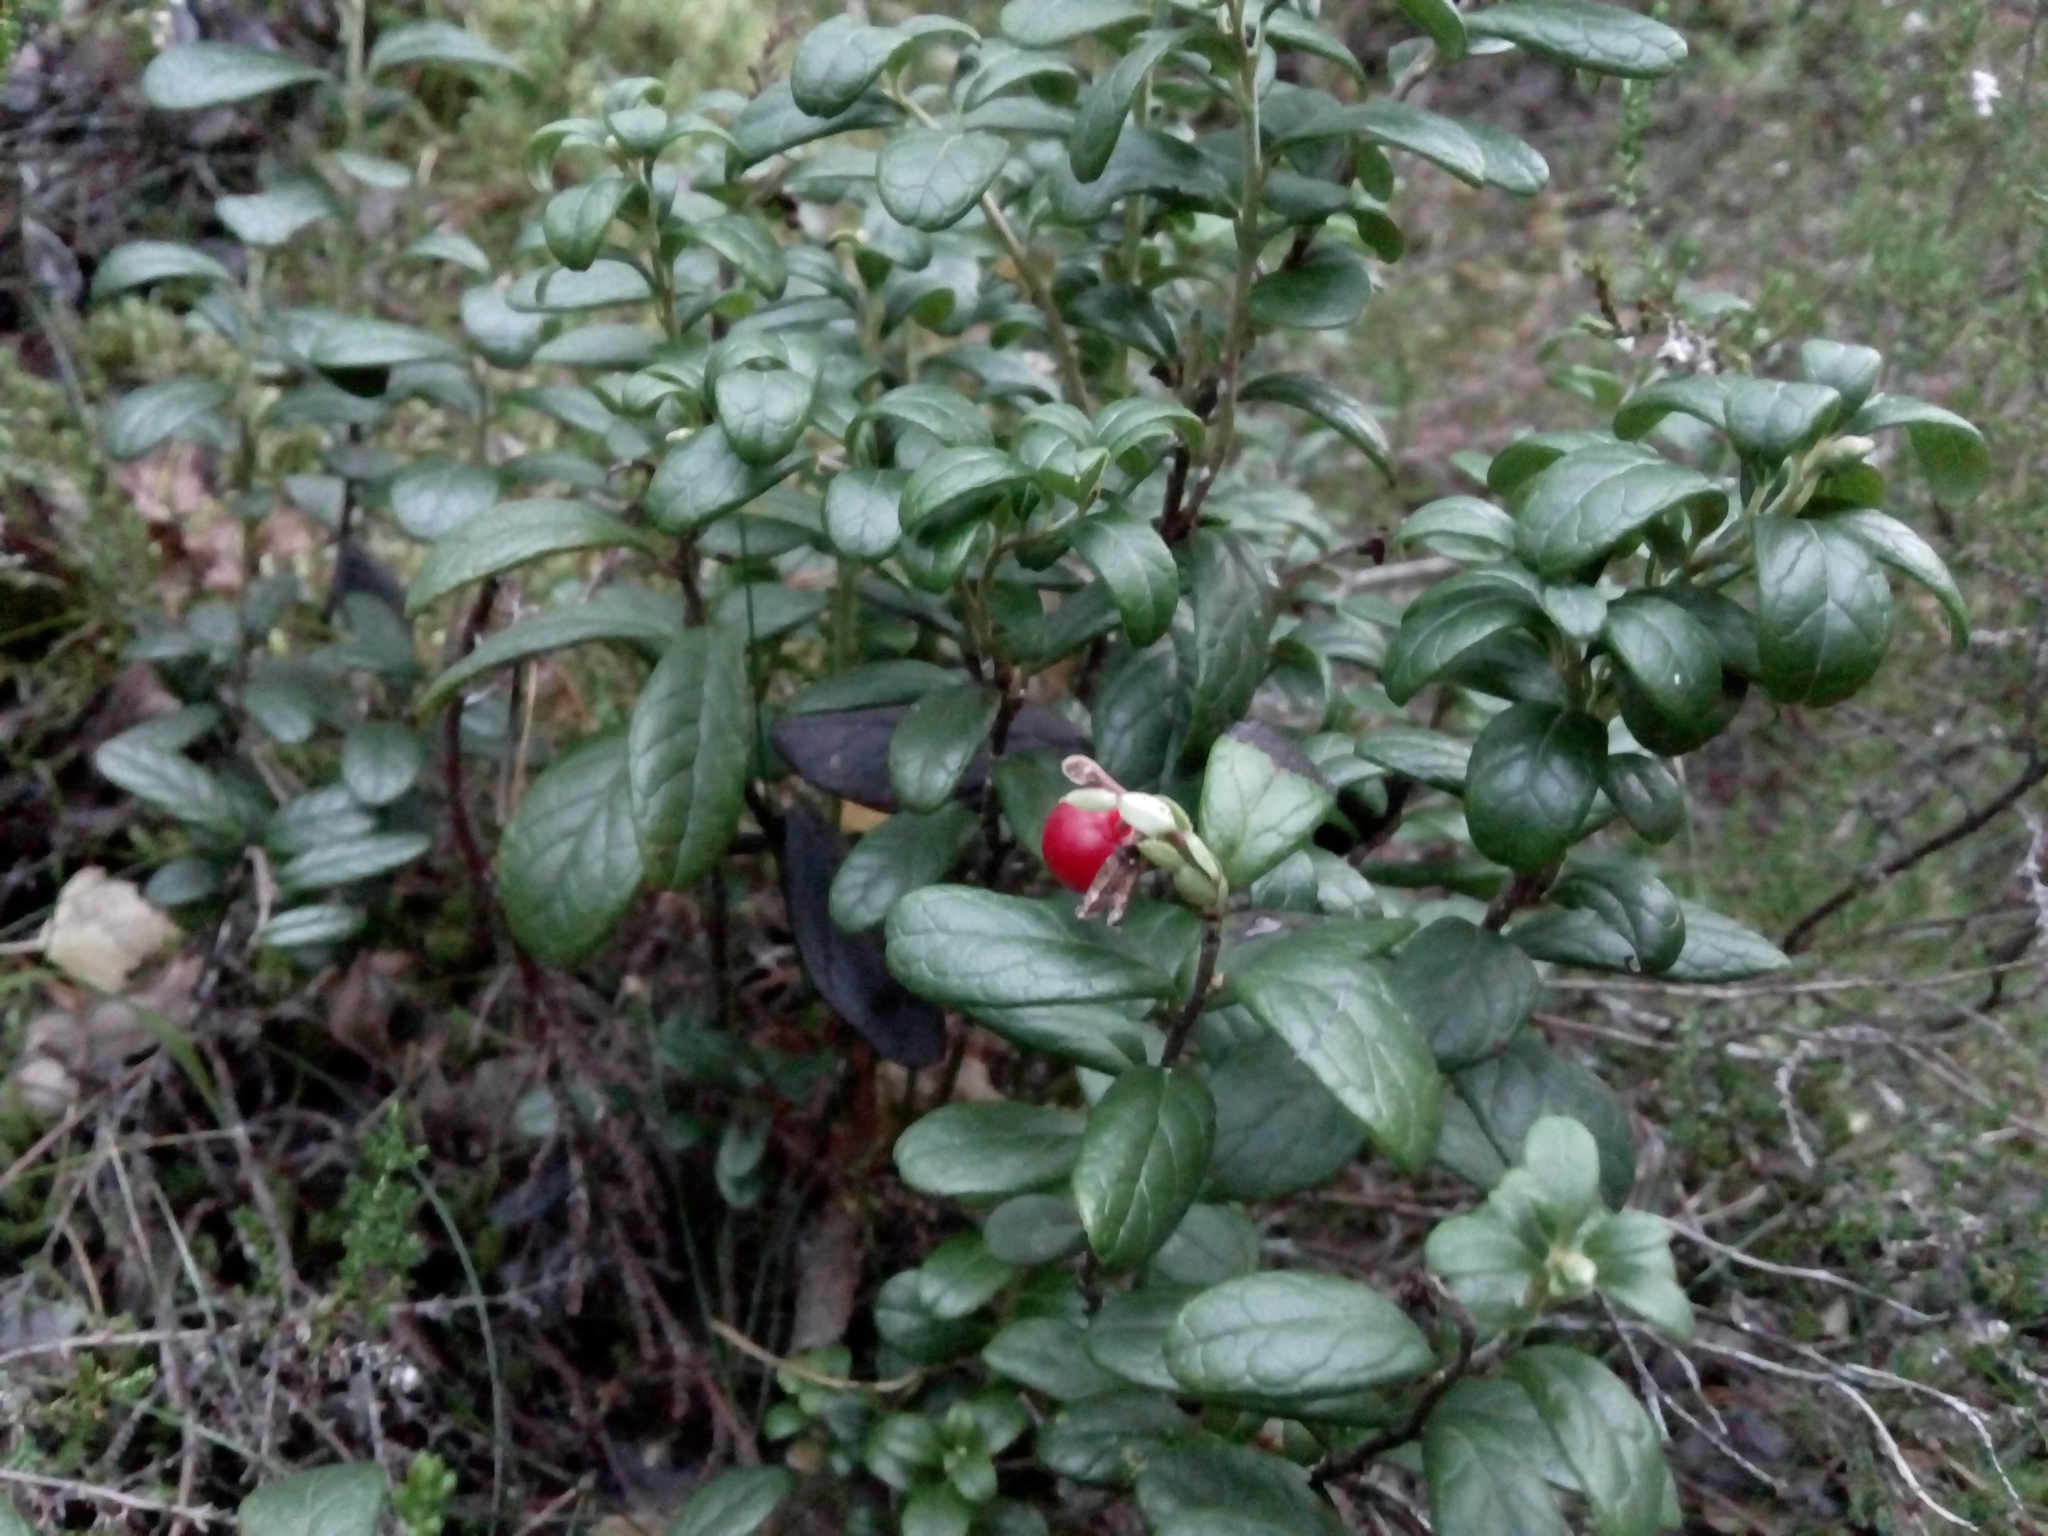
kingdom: Plantae
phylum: Tracheophyta
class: Magnoliopsida
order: Ericales
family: Ericaceae
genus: Vaccinium
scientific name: Vaccinium vitis-idaea
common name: Cowberry
